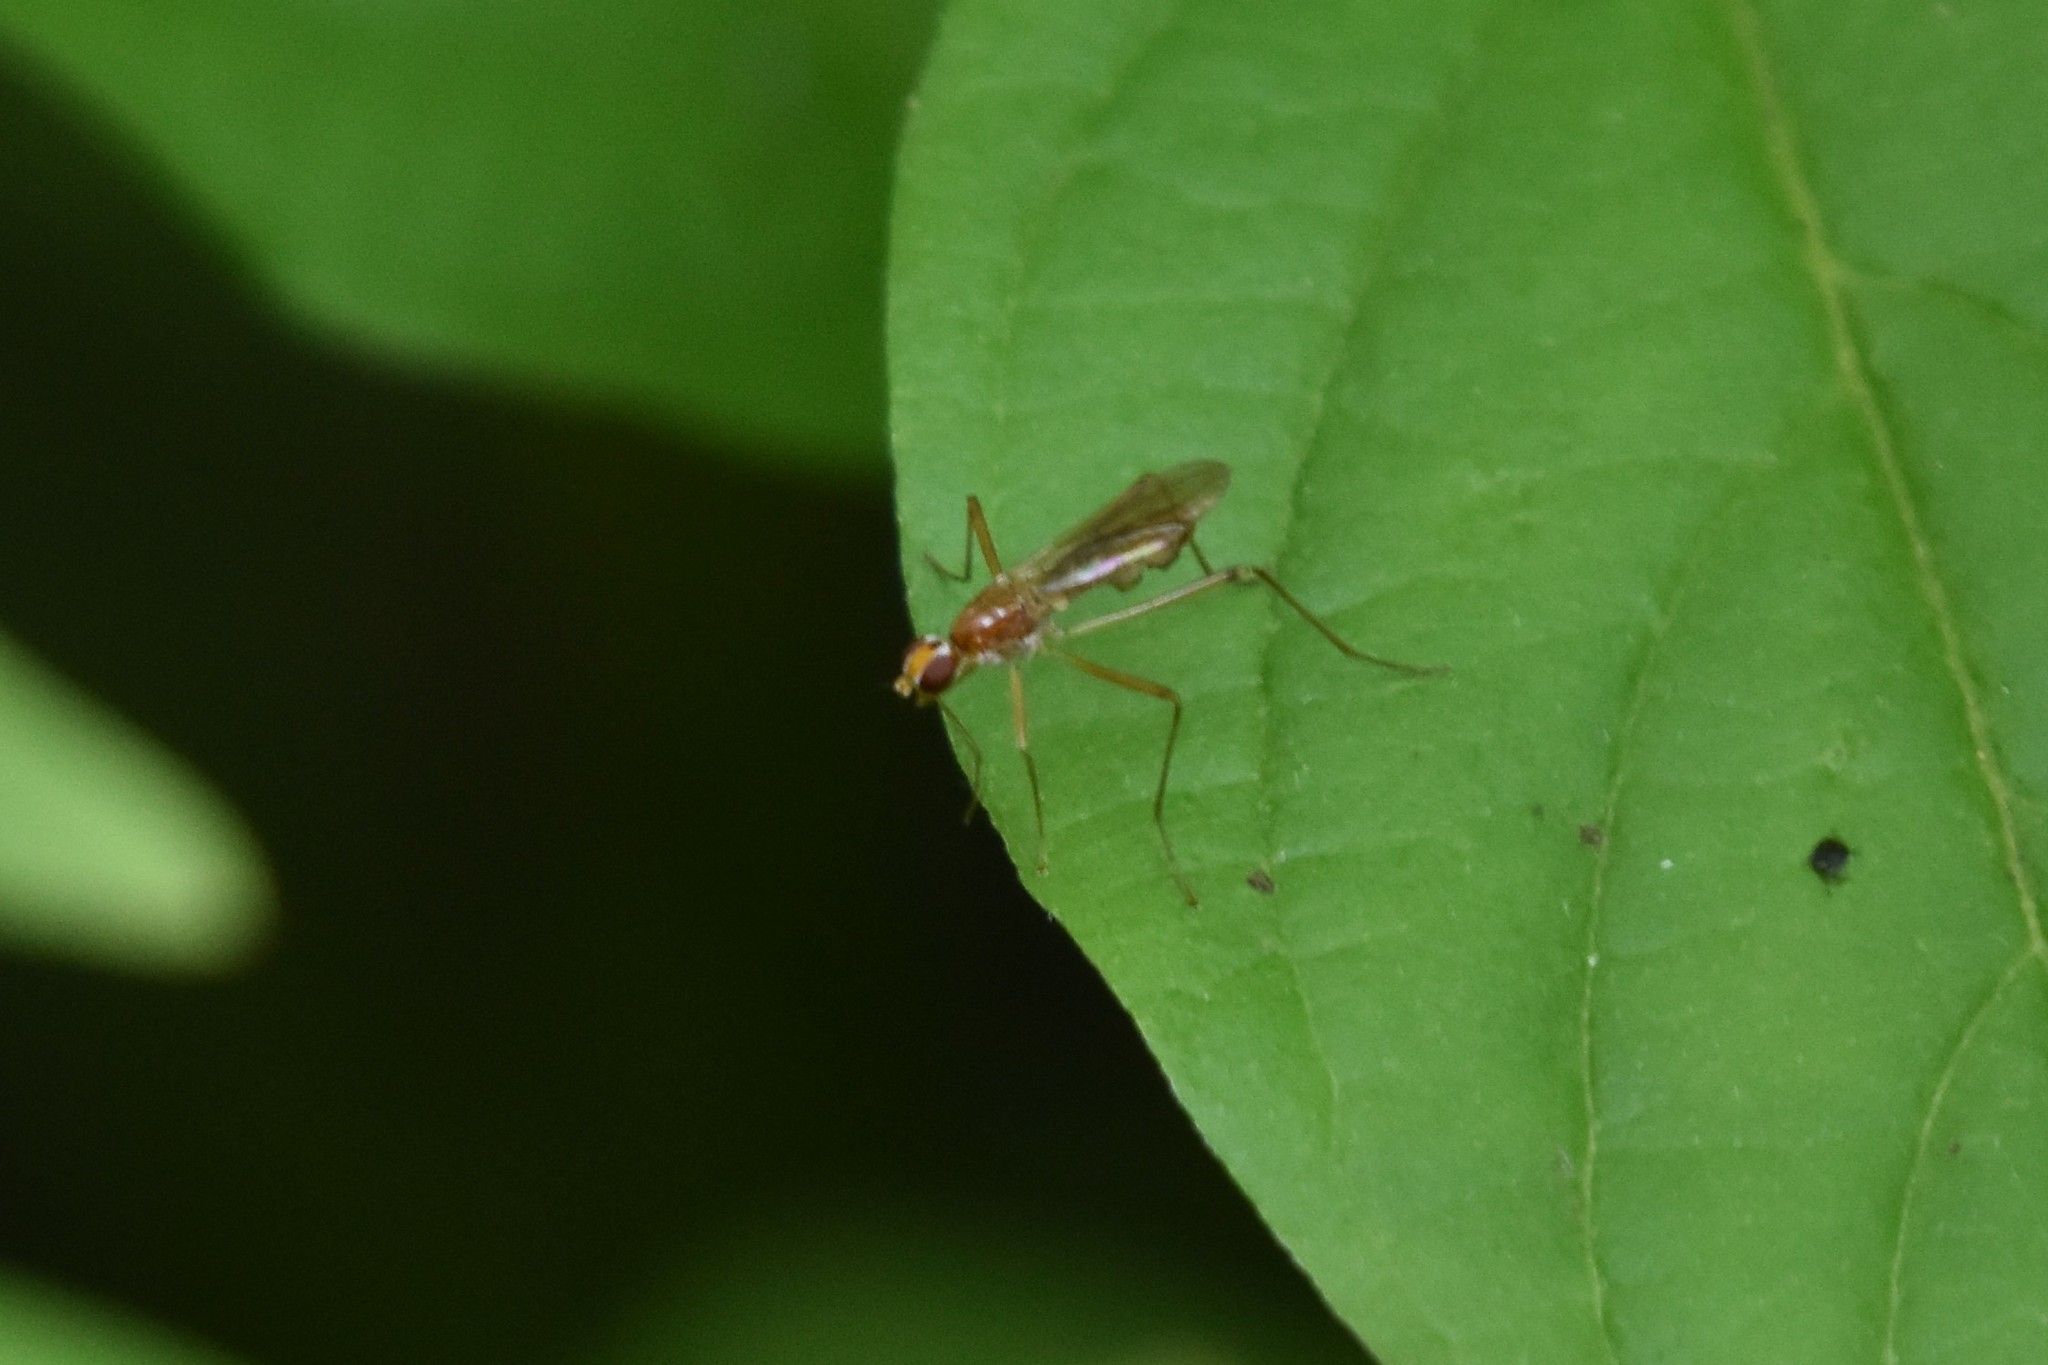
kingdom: Animalia
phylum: Arthropoda
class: Insecta
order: Diptera
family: Micropezidae
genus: Compsobata
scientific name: Compsobata univitta
